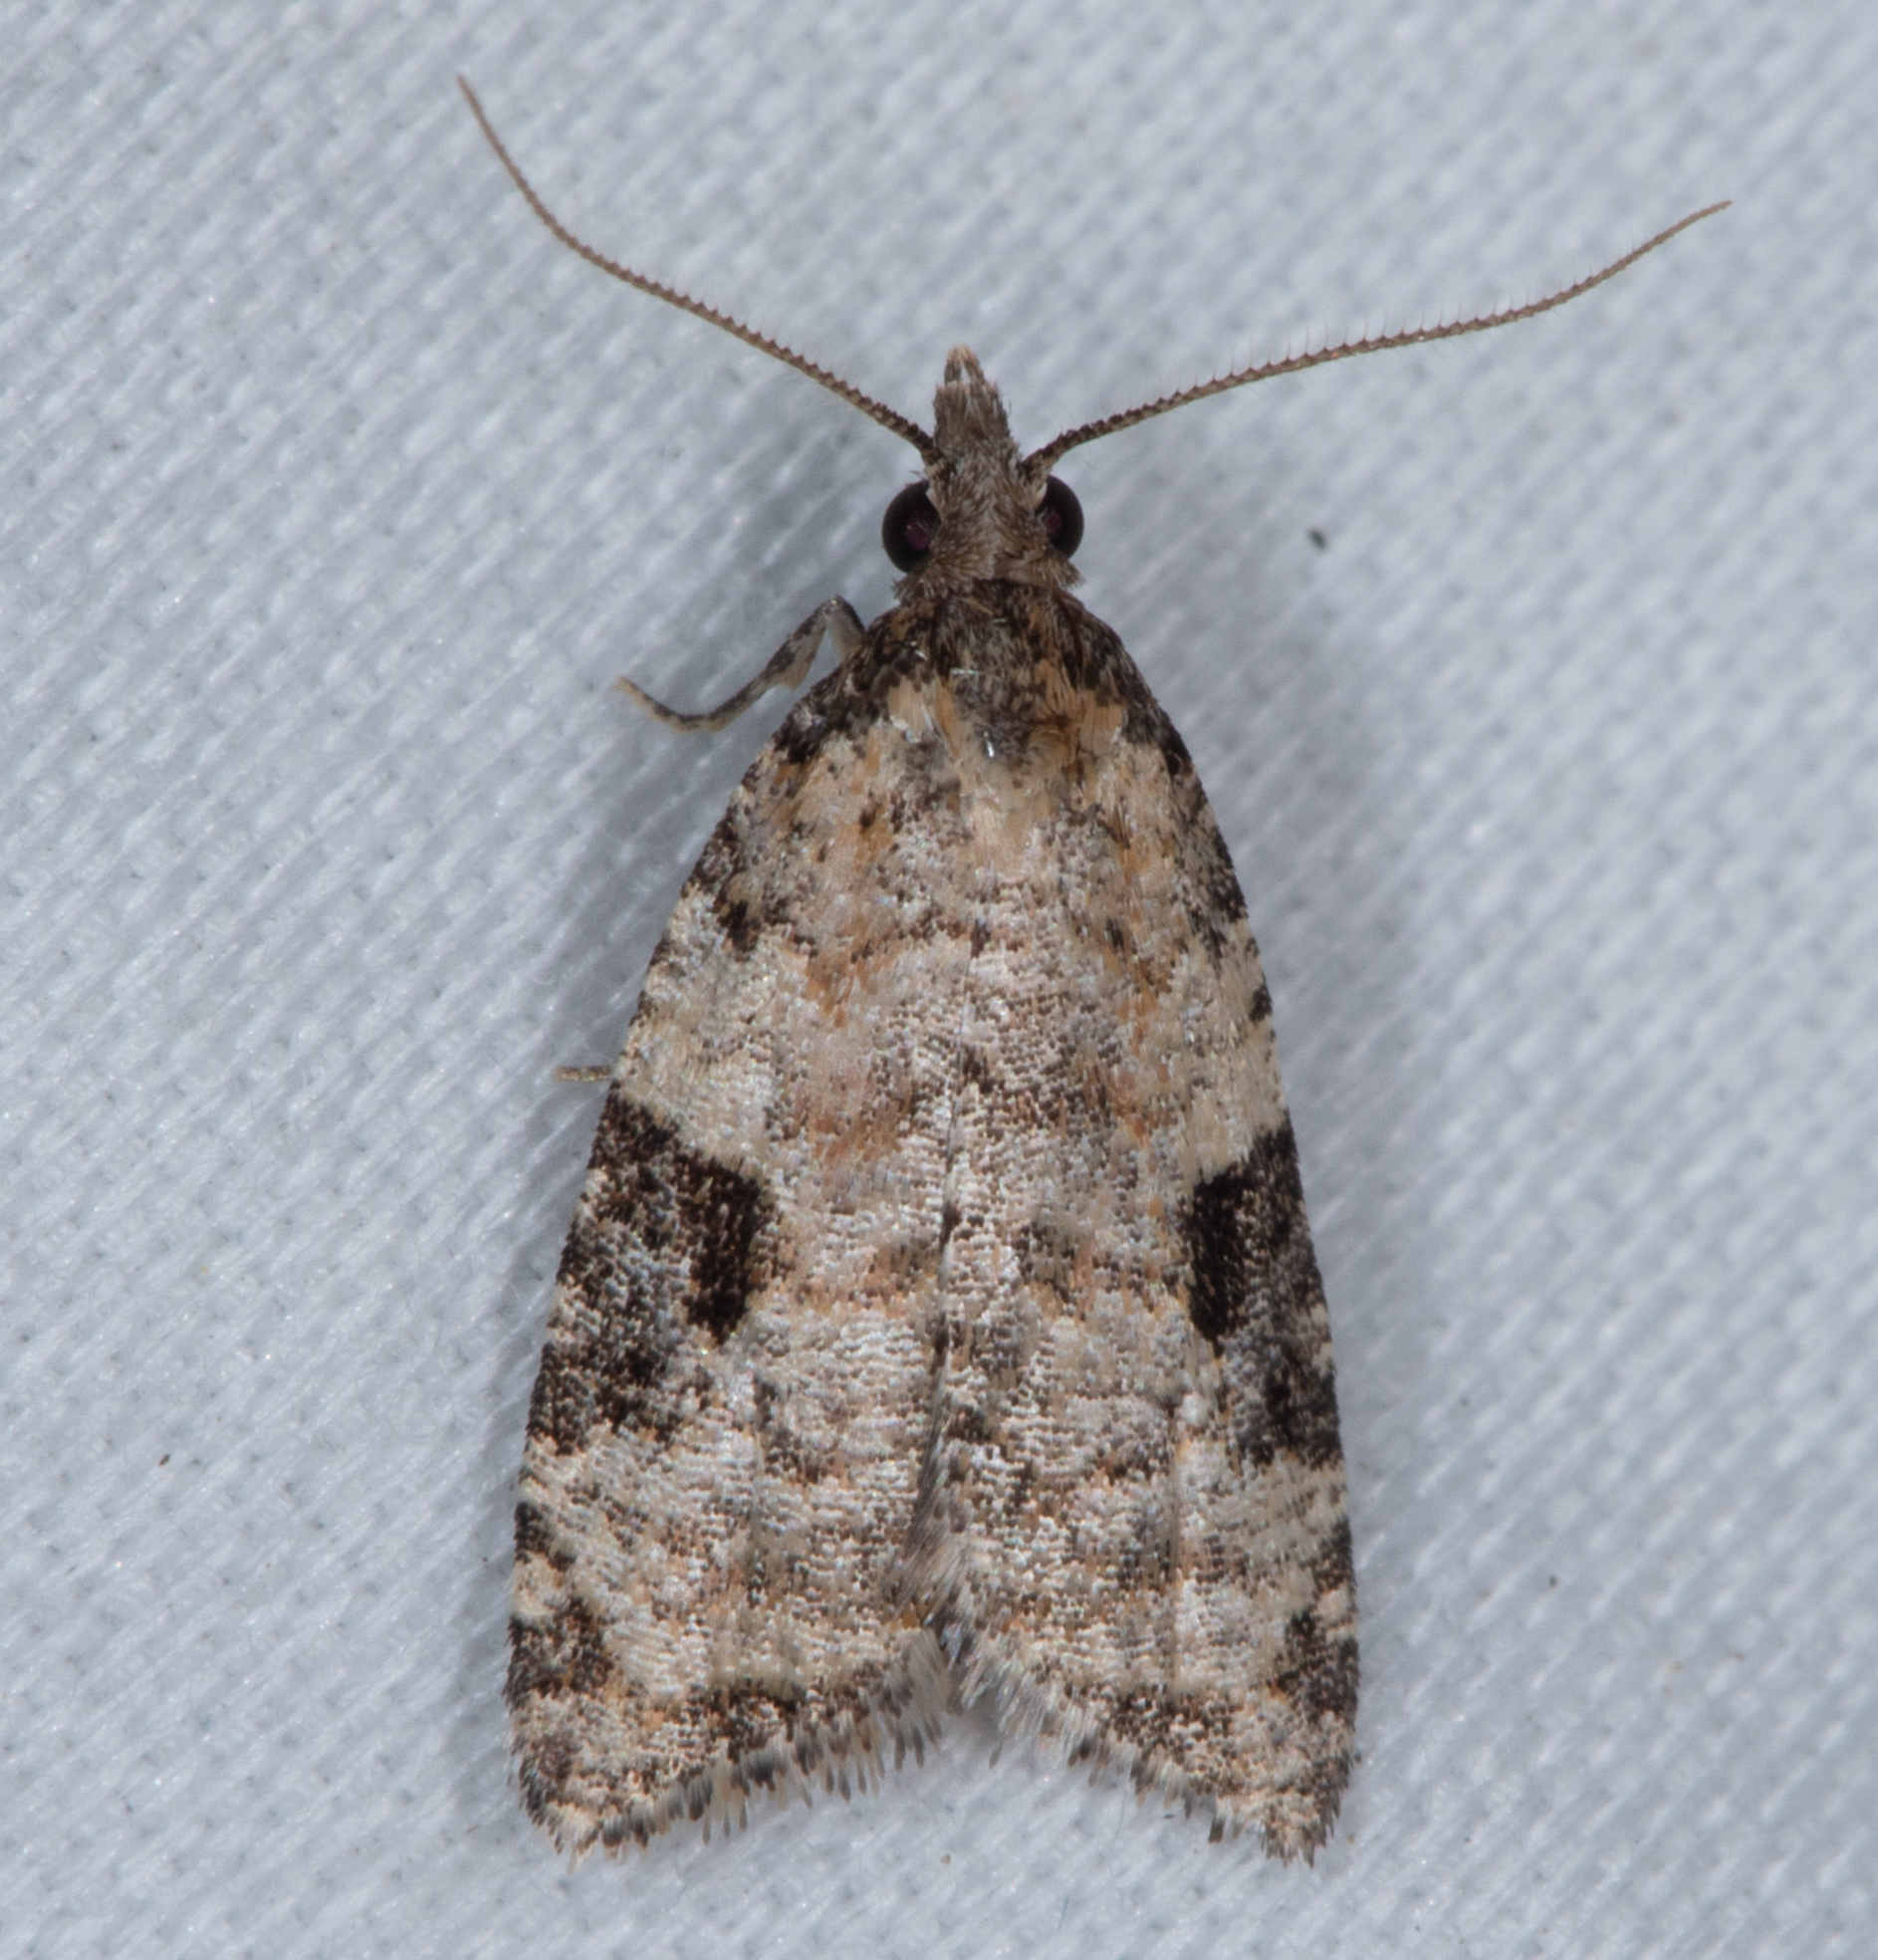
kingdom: Animalia
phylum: Arthropoda
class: Insecta
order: Lepidoptera
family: Tortricidae
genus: Anopina
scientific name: Anopina triangulana
